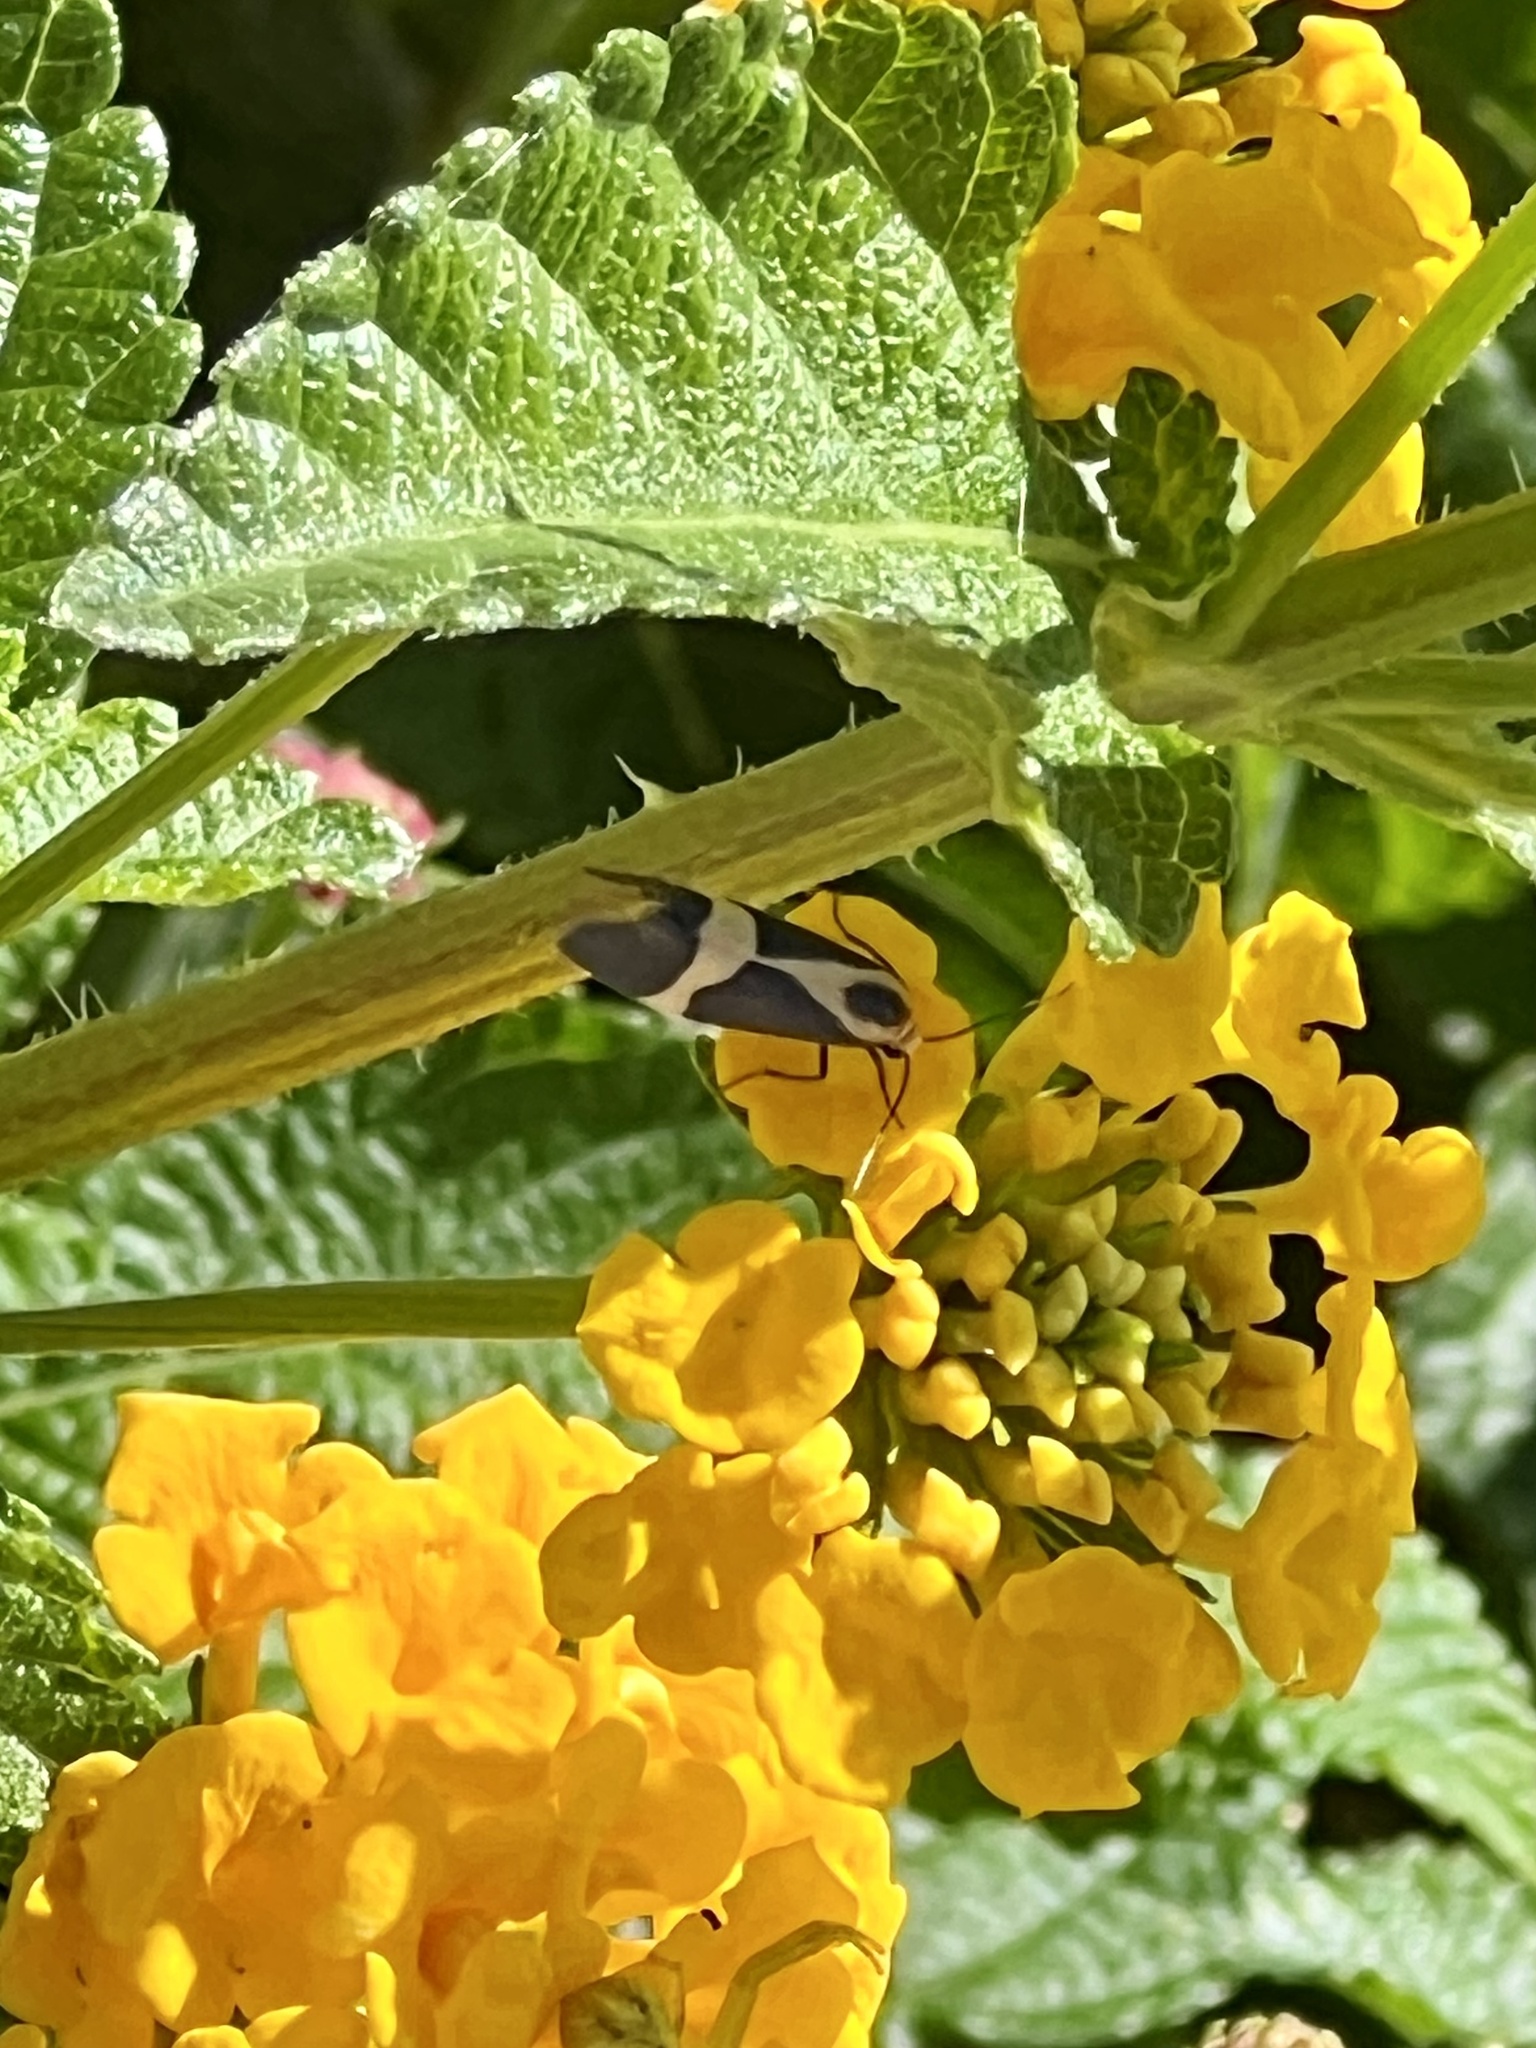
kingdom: Animalia
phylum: Arthropoda
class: Insecta
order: Lepidoptera
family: Erebidae
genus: Cisthene
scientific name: Cisthene tenuifascia
